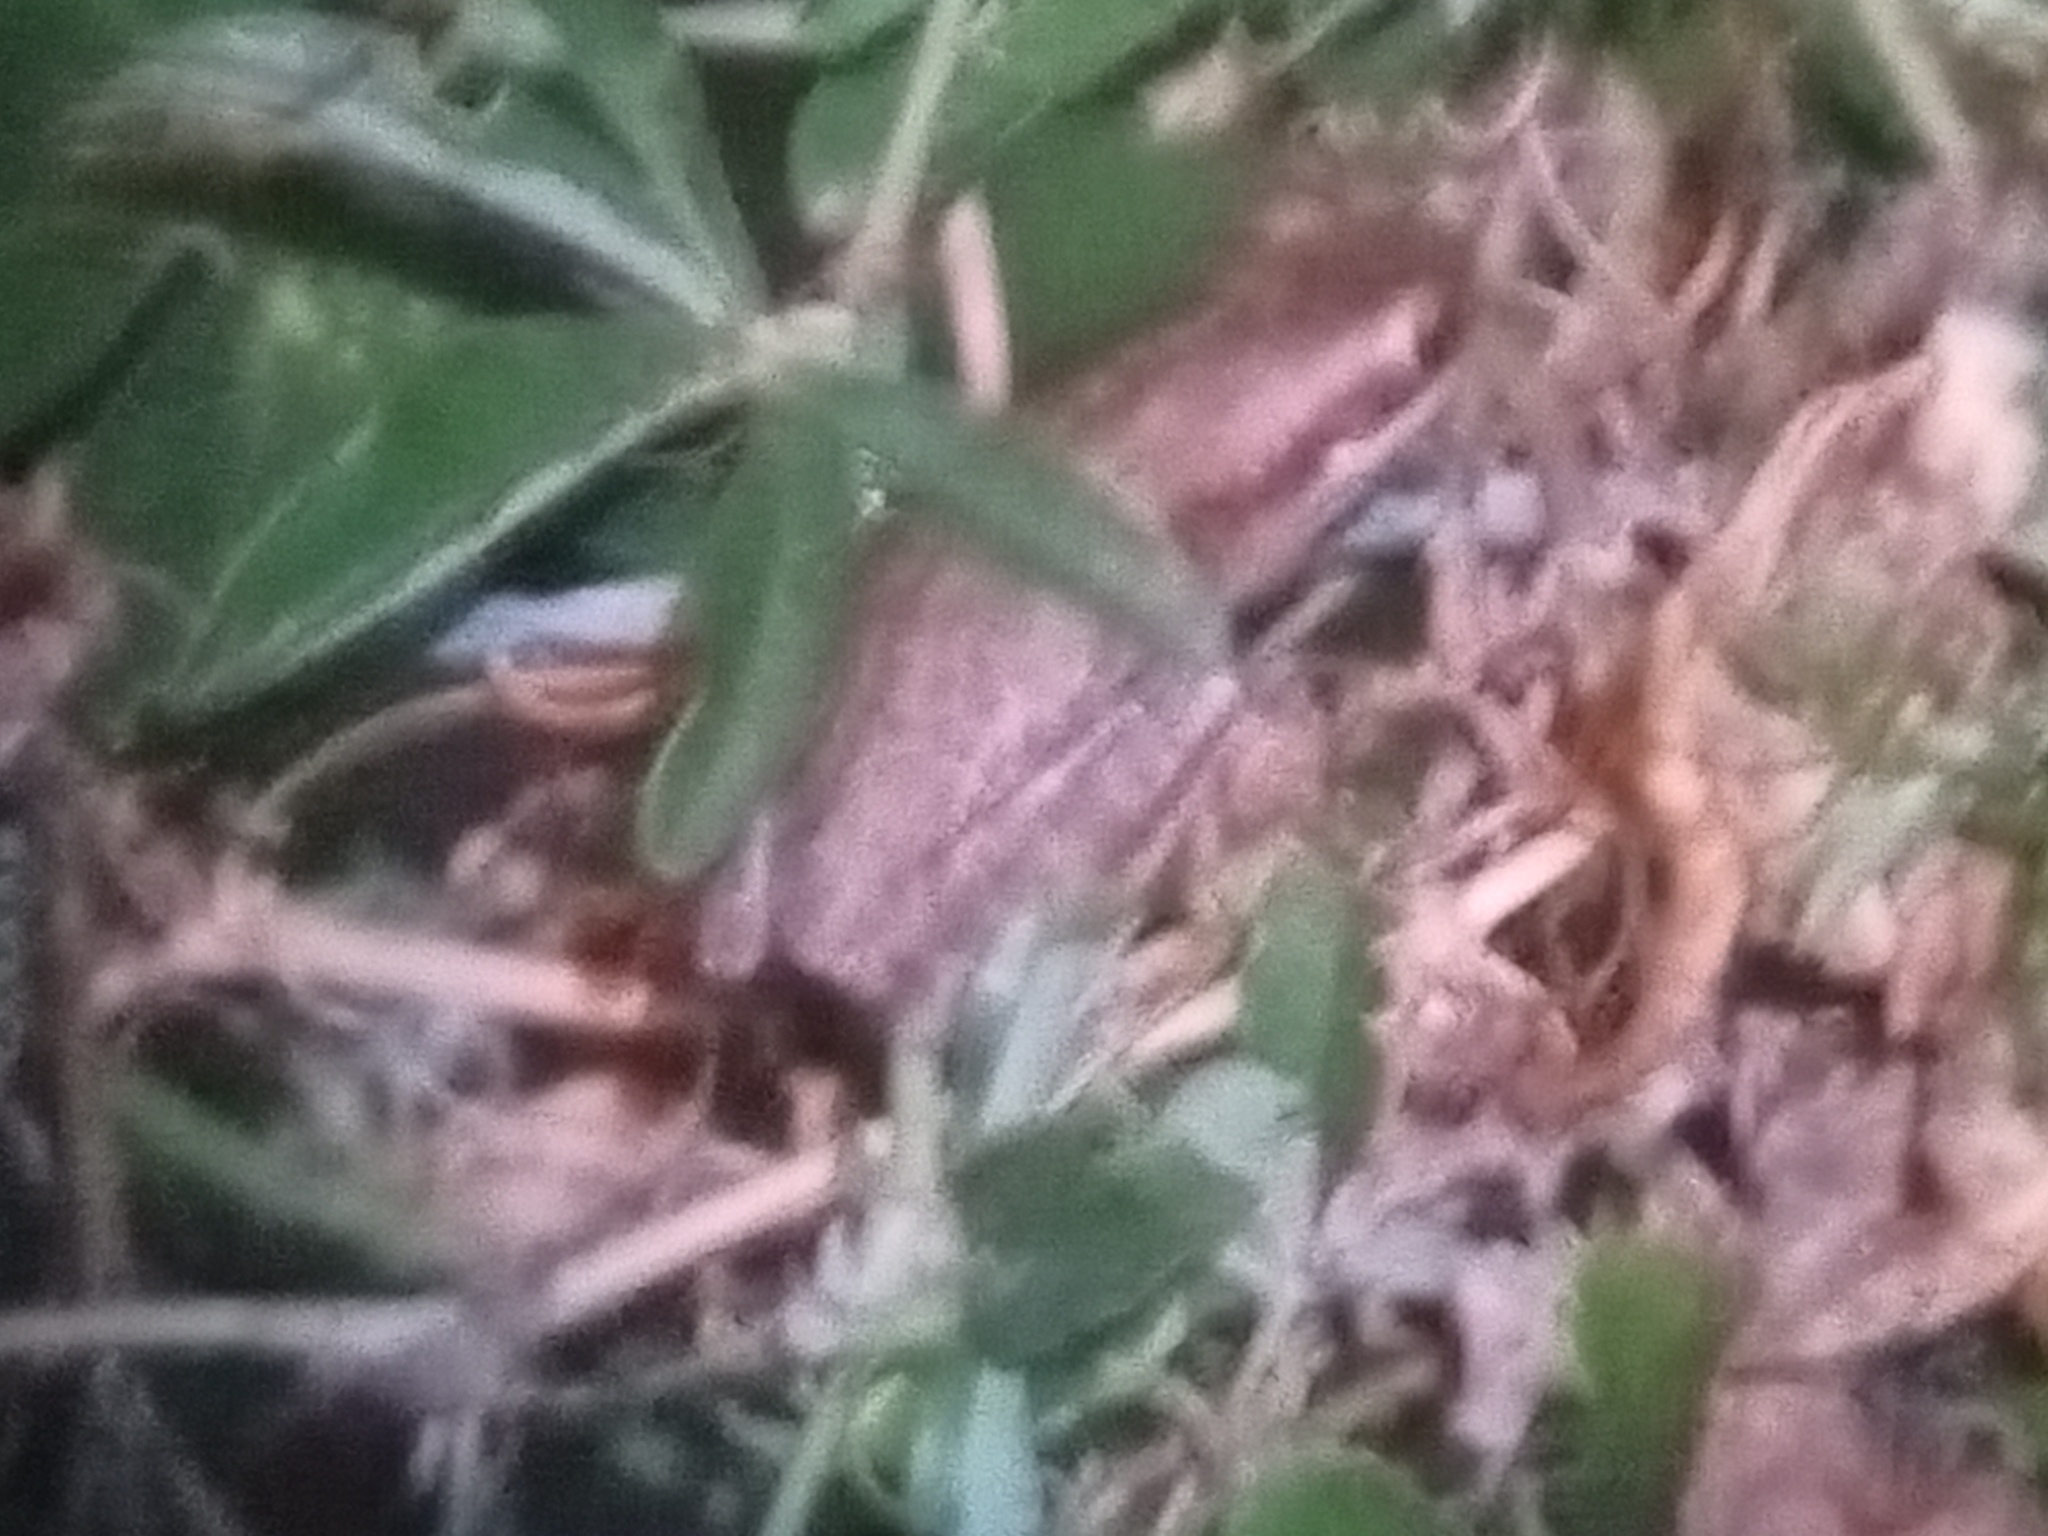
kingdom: Animalia
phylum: Chordata
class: Amphibia
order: Anura
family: Hylidae
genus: Boana
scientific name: Boana pulchella
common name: Montevideo treefrog
